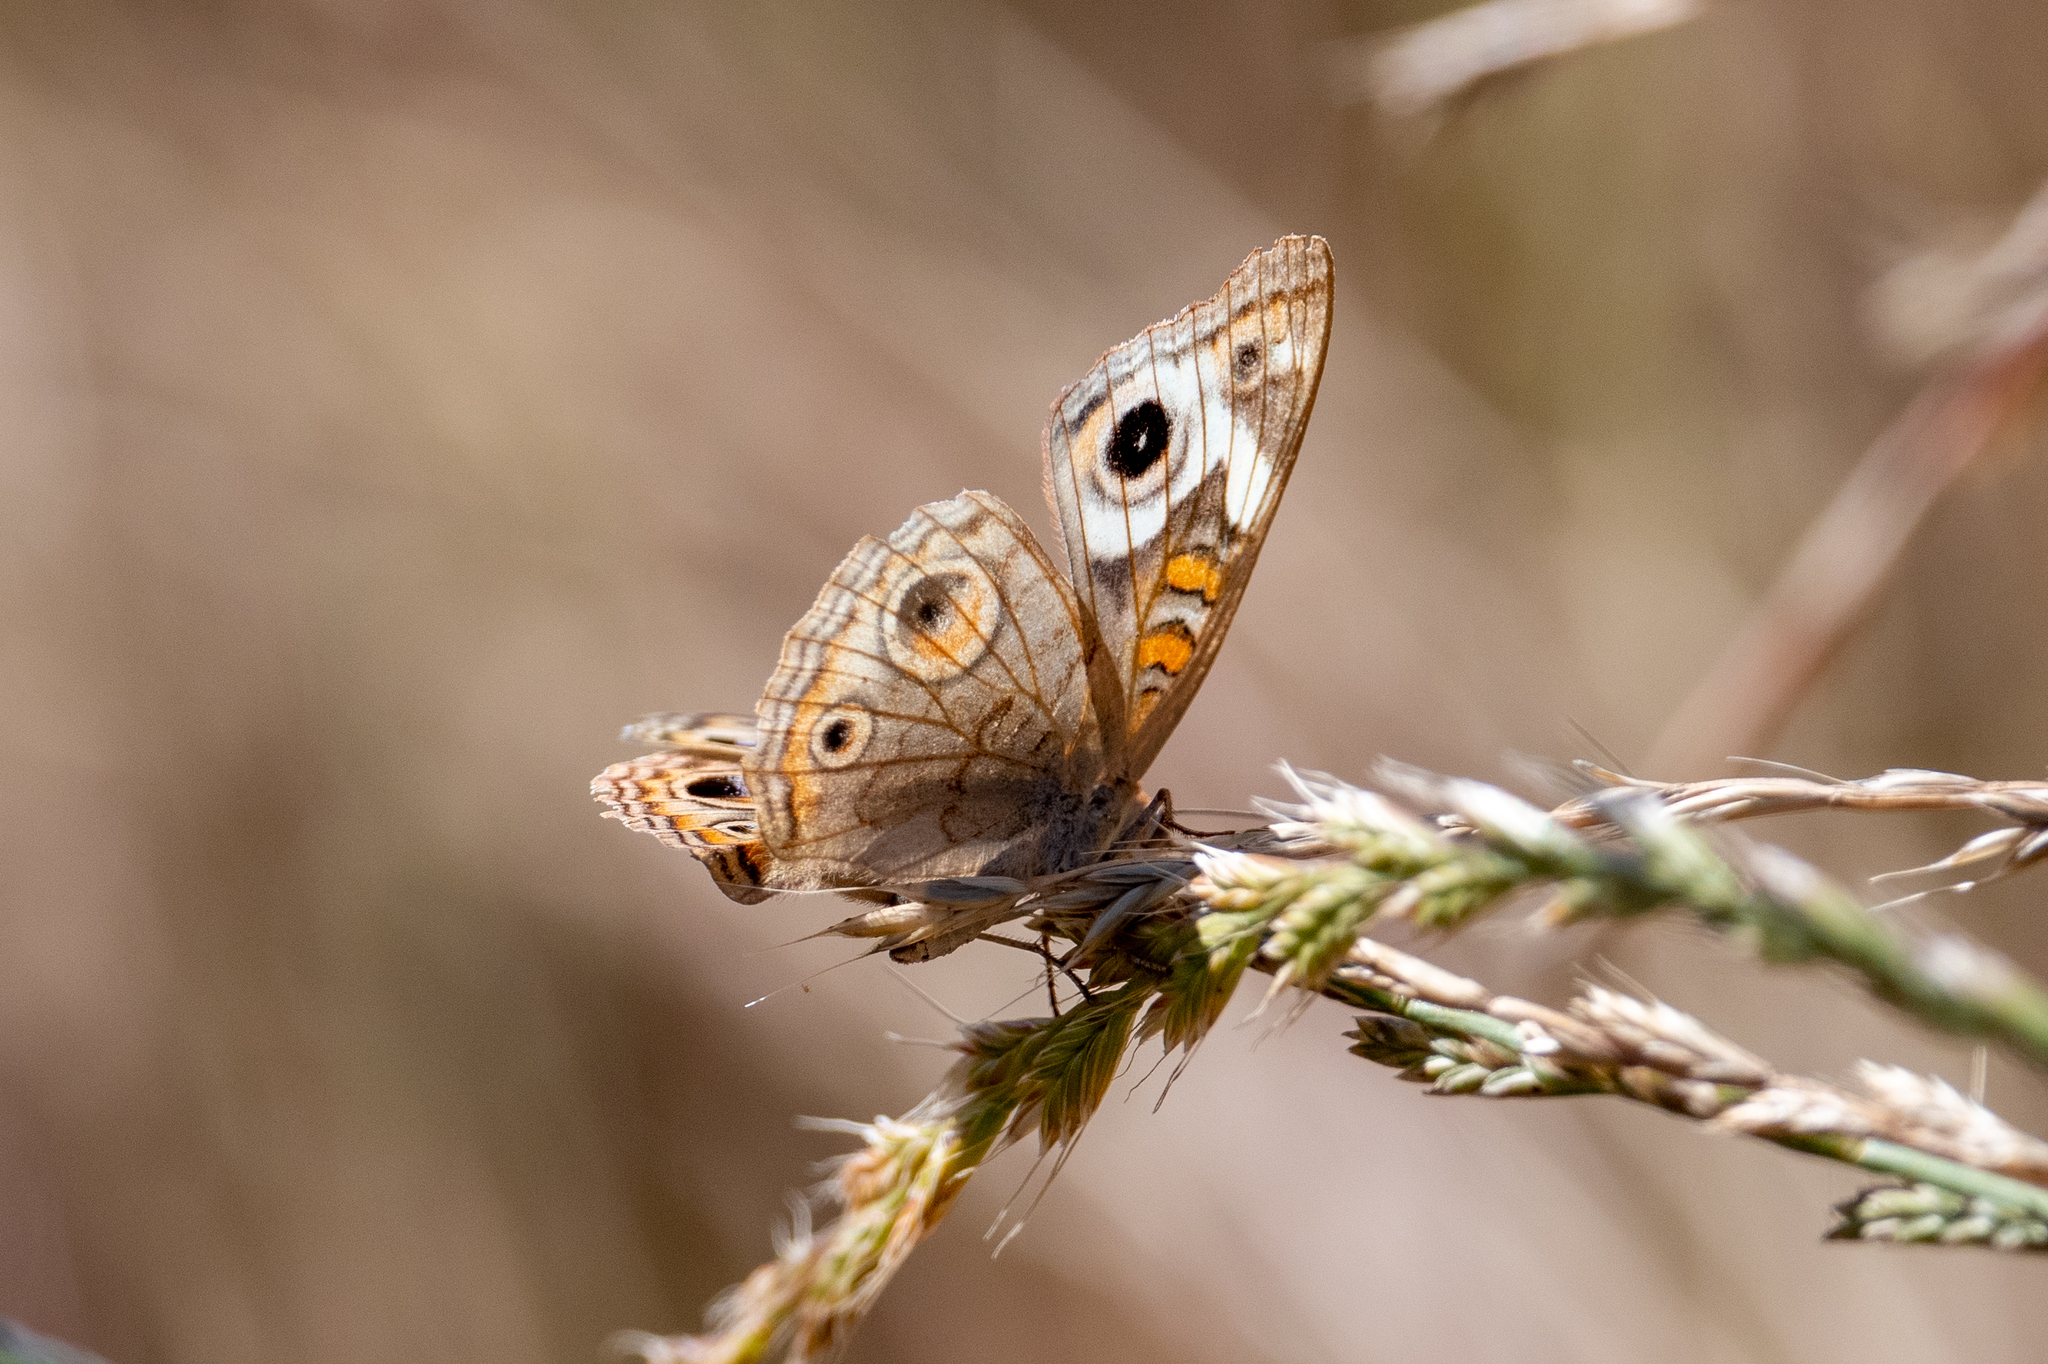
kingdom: Animalia
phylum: Arthropoda
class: Insecta
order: Lepidoptera
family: Nymphalidae
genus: Junonia
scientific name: Junonia grisea
